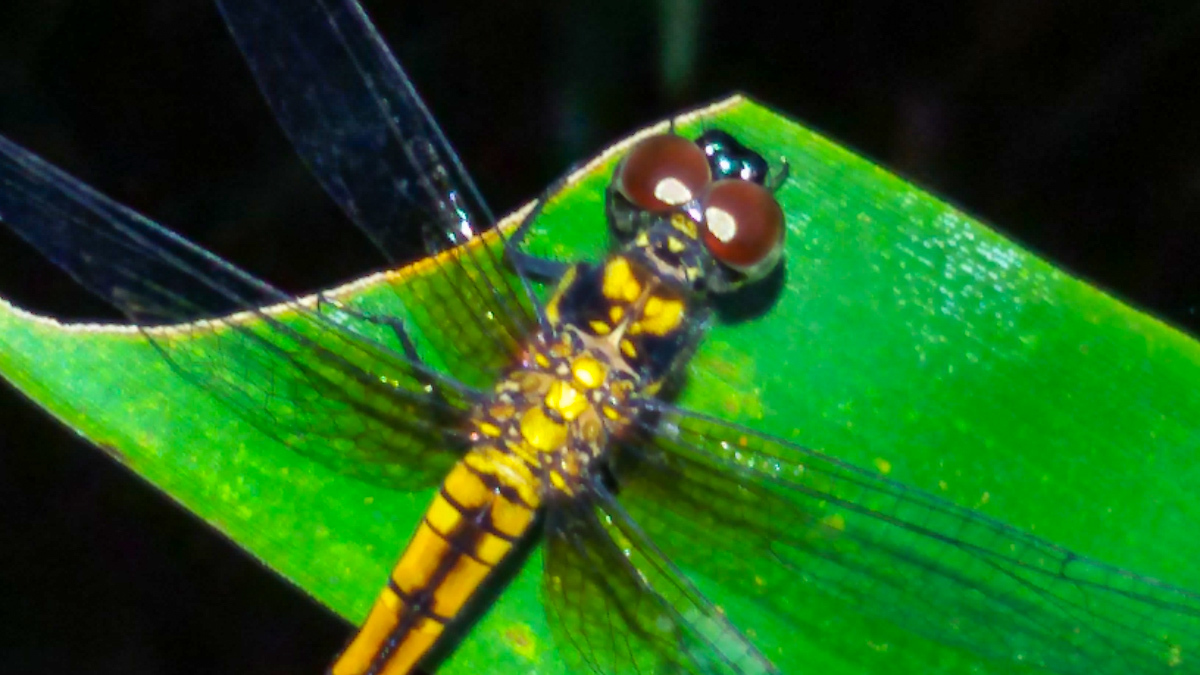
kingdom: Animalia
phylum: Arthropoda
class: Insecta
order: Odonata
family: Libellulidae
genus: Amphithemis
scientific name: Amphithemis curvistyla
